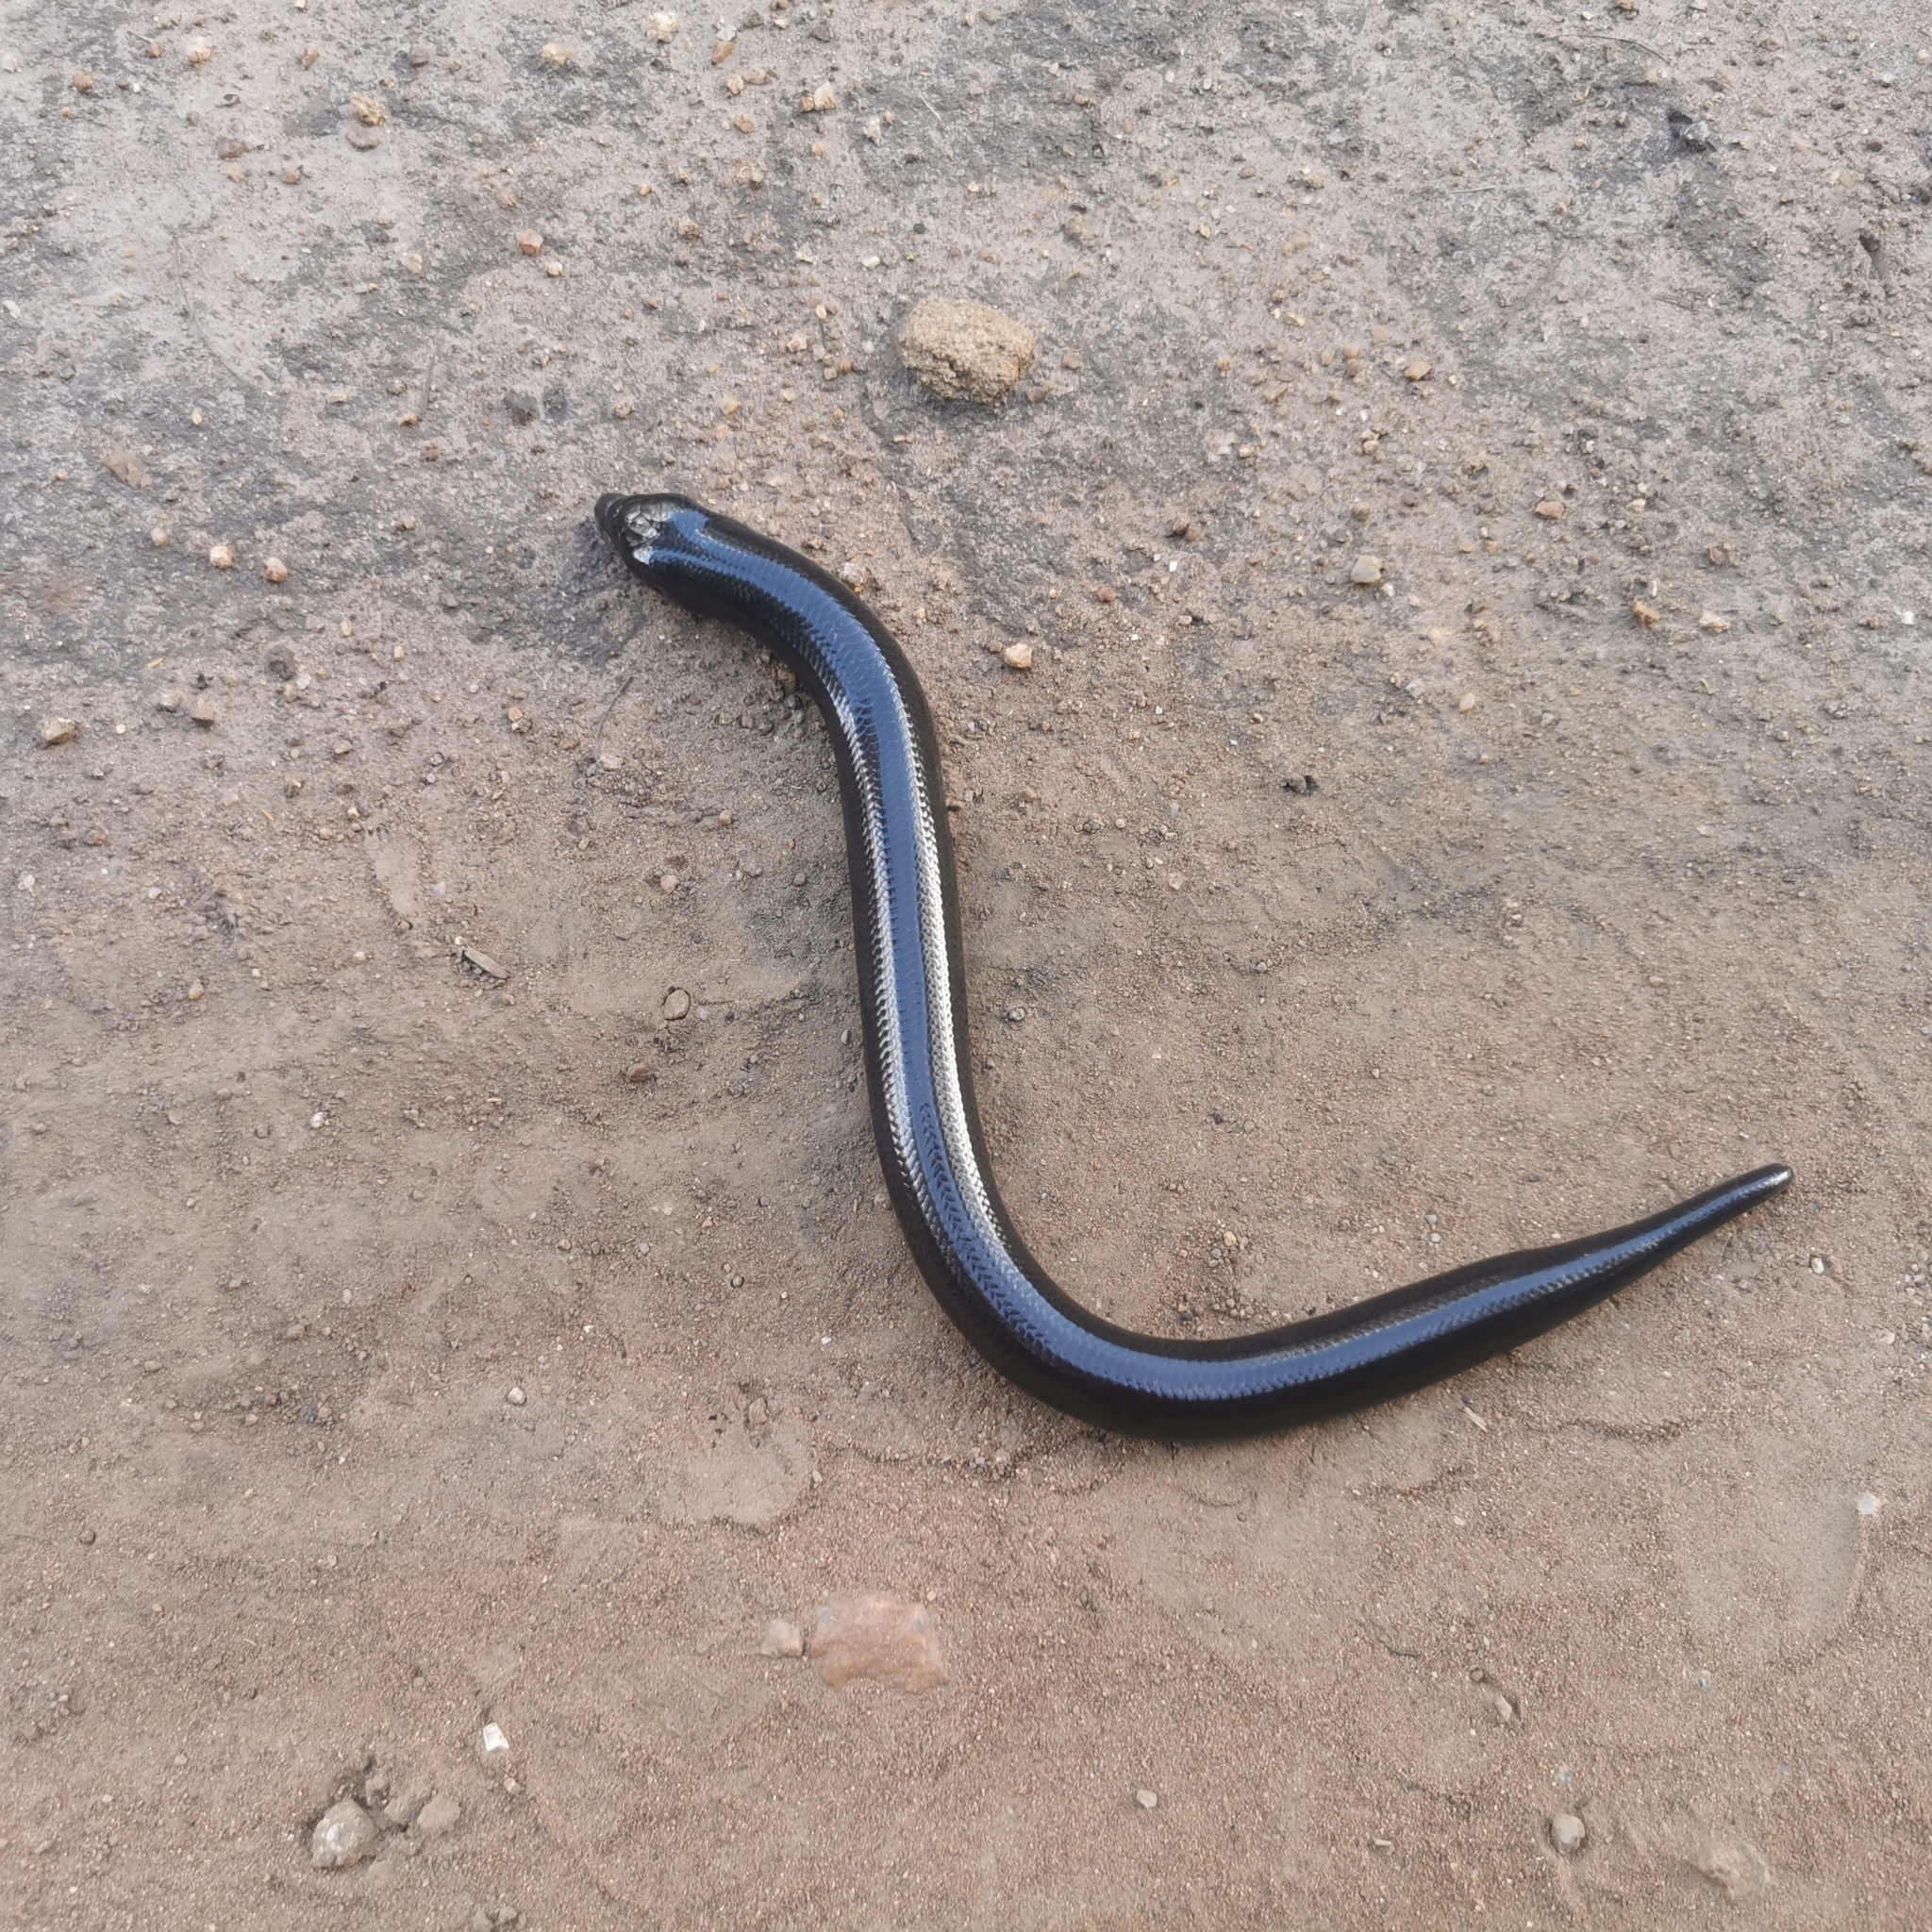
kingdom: Animalia
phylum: Chordata
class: Squamata
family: Scincidae
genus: Acontias
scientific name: Acontias plumbeus
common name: Giant lance skink
